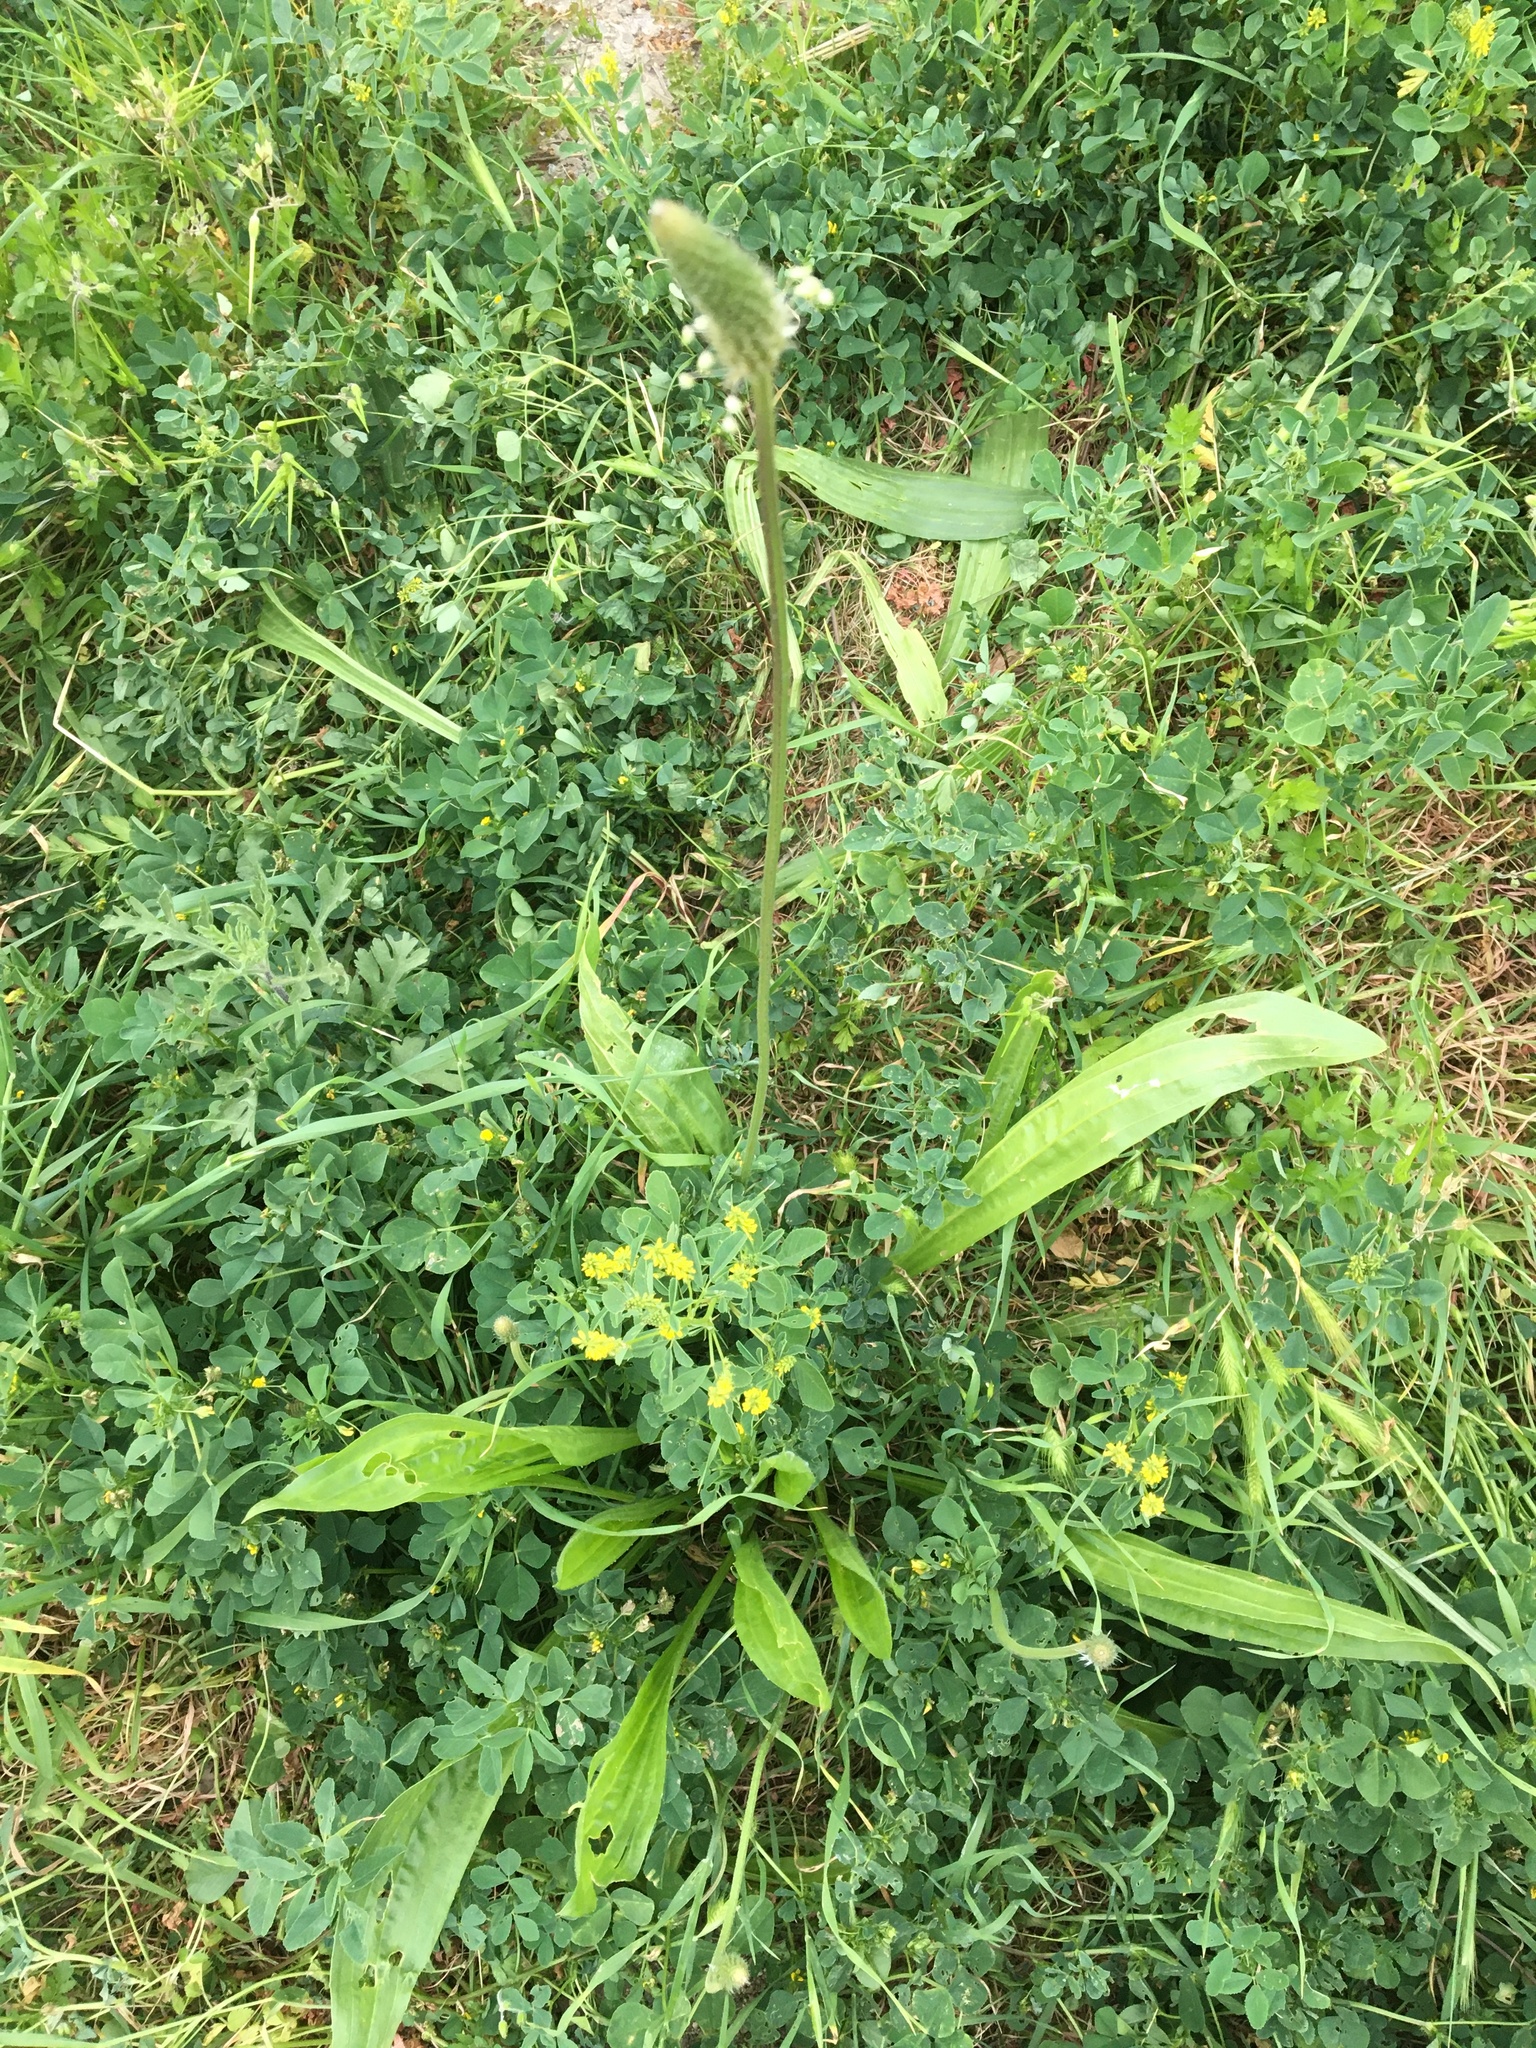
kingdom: Plantae
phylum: Tracheophyta
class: Magnoliopsida
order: Lamiales
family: Plantaginaceae
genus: Plantago
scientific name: Plantago lanceolata
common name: Ribwort plantain
